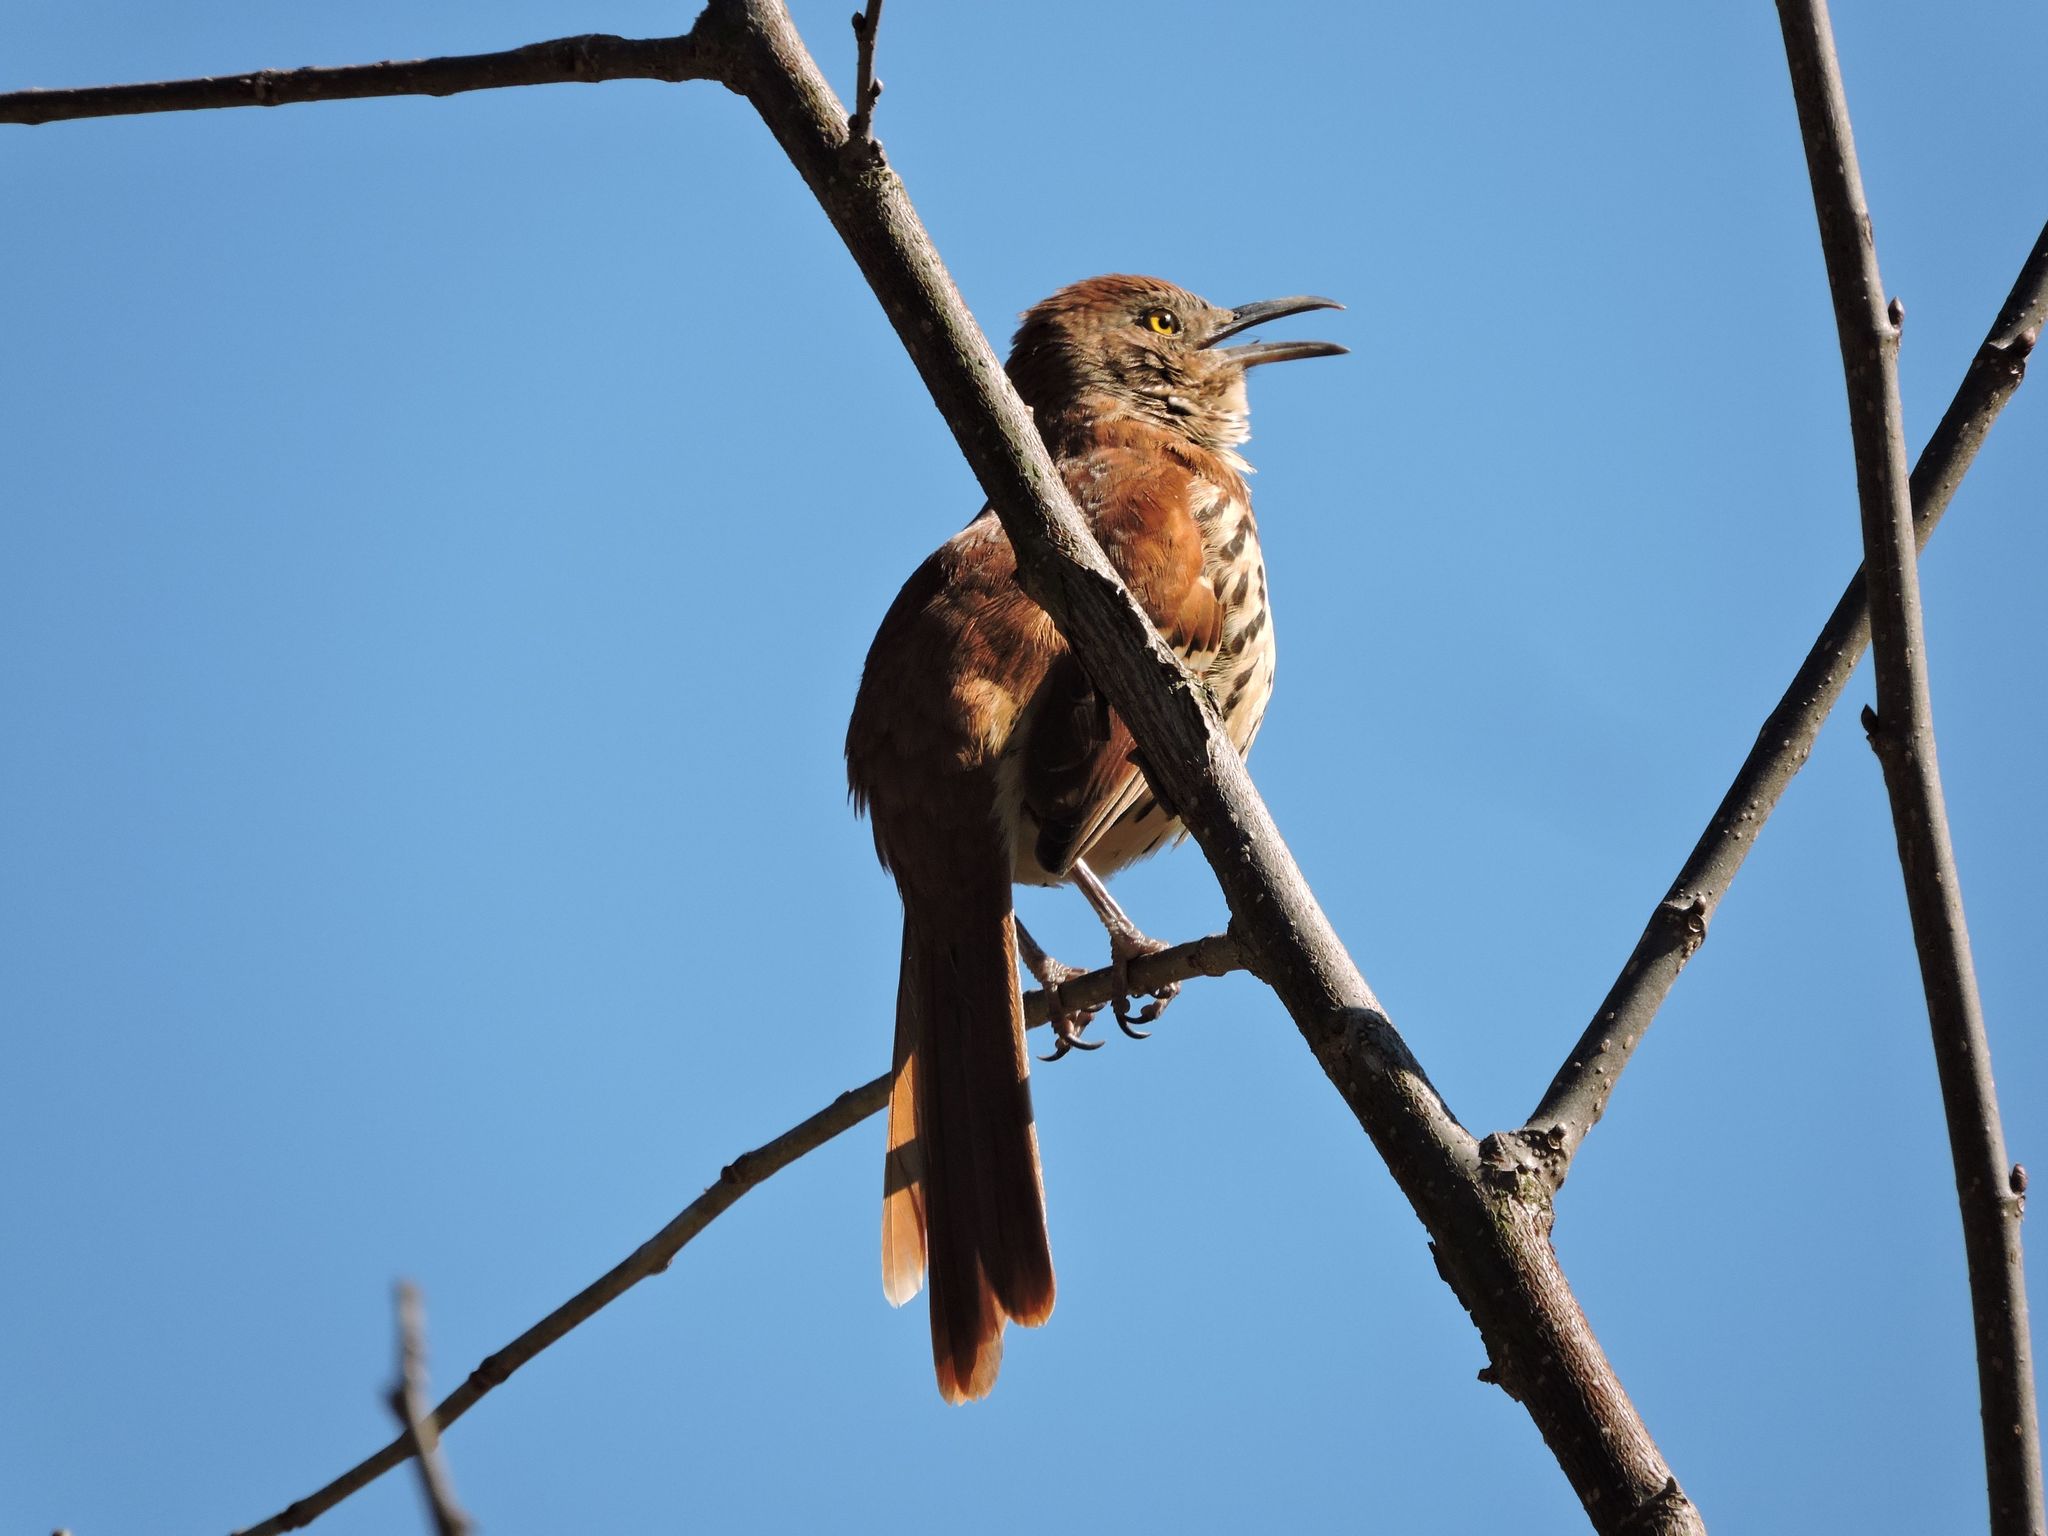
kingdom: Animalia
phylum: Chordata
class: Aves
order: Passeriformes
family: Mimidae
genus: Toxostoma
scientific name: Toxostoma rufum
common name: Brown thrasher
